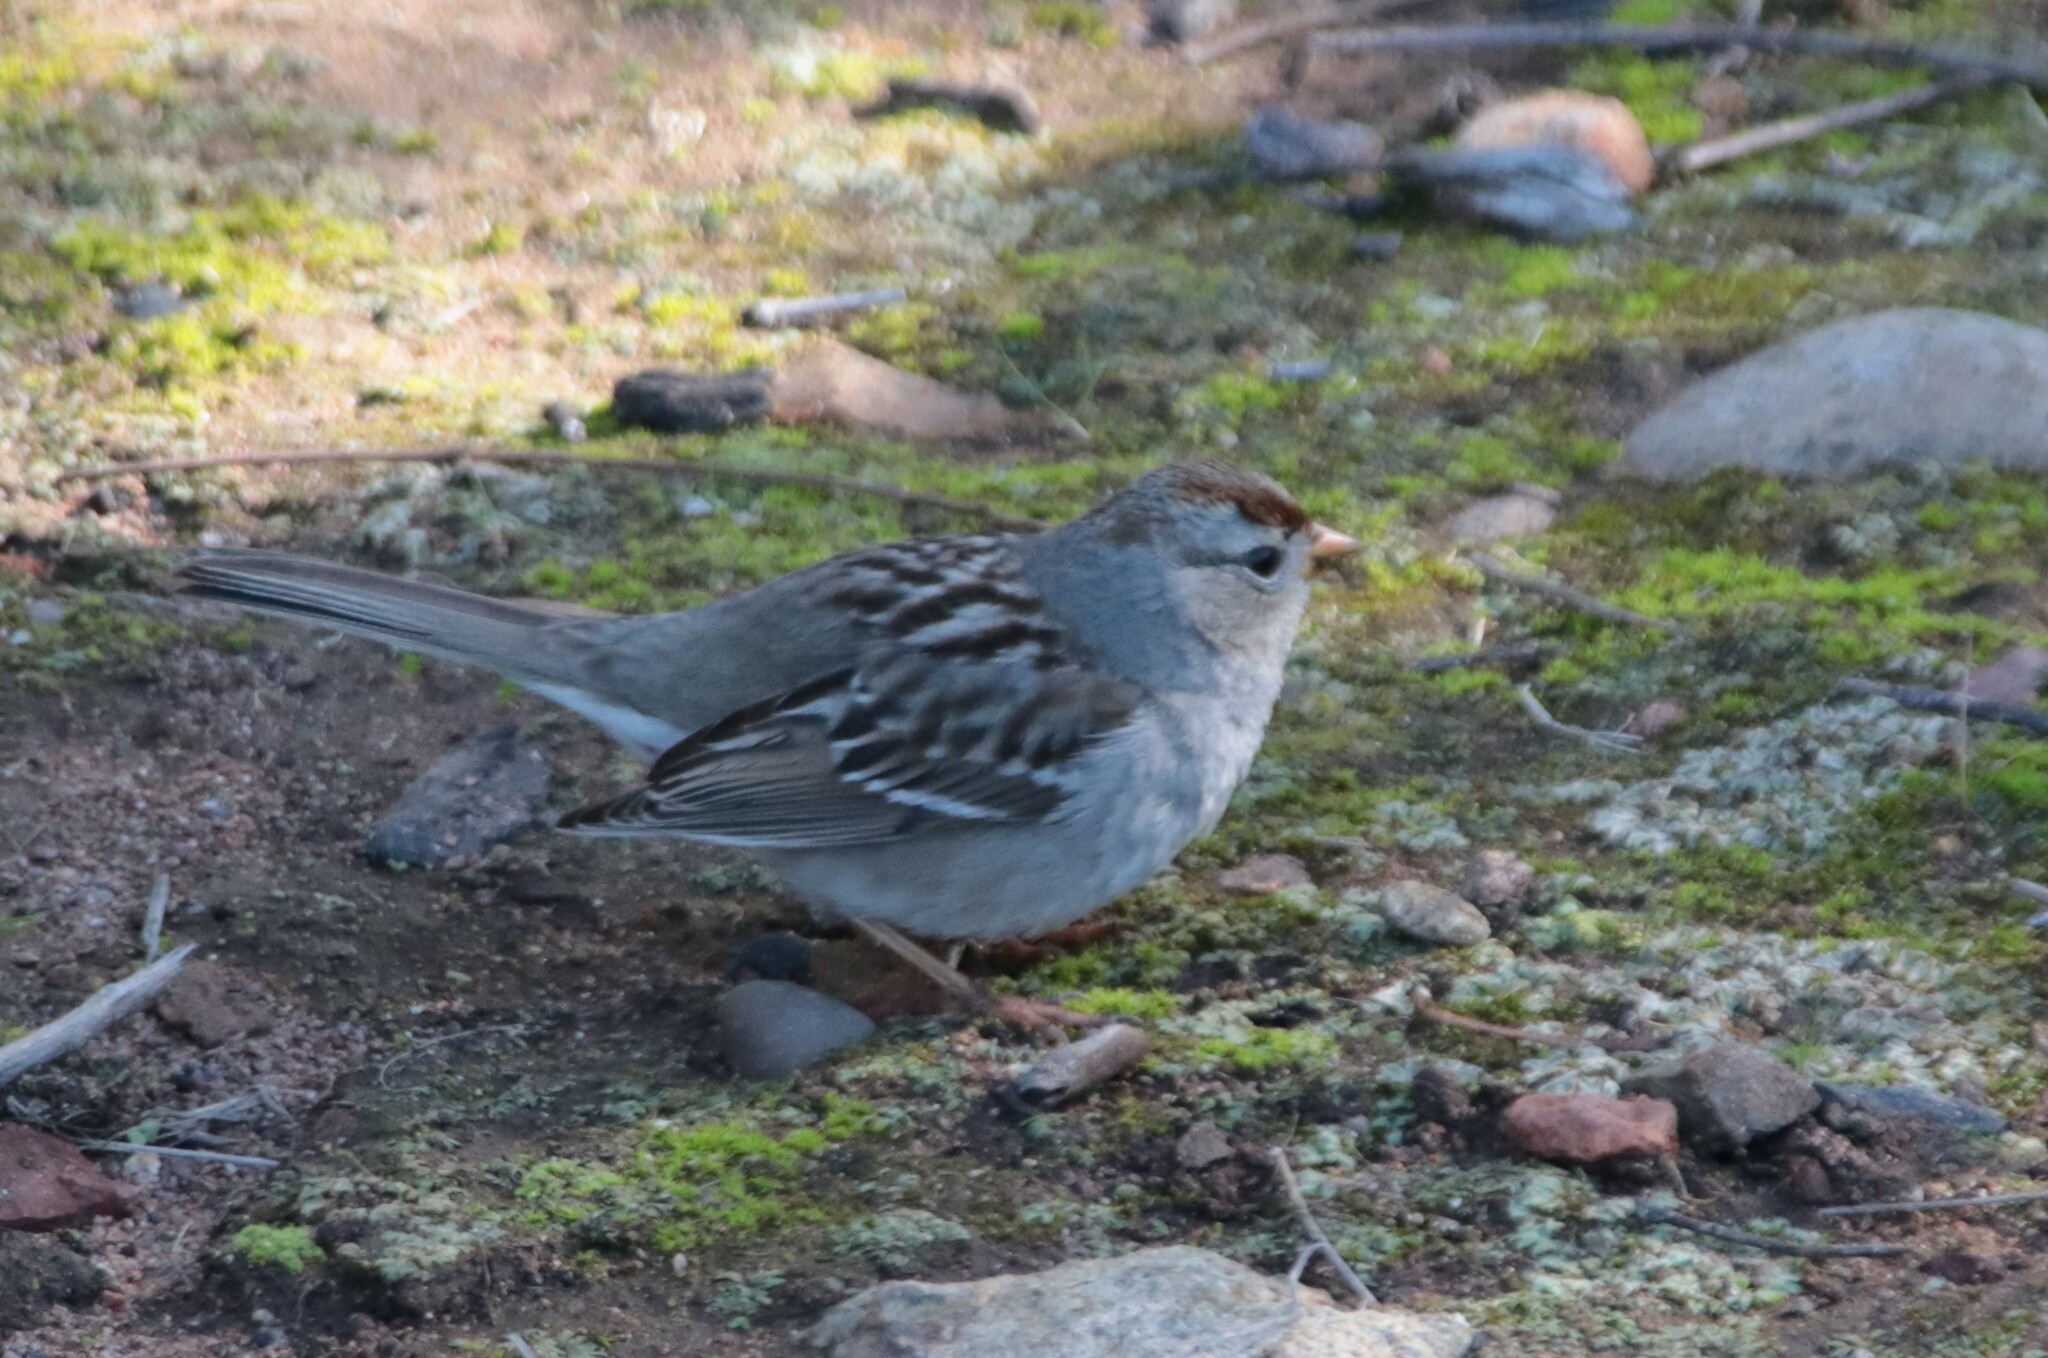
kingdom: Animalia
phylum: Chordata
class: Aves
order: Passeriformes
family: Passerellidae
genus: Zonotrichia
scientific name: Zonotrichia leucophrys
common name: White-crowned sparrow
